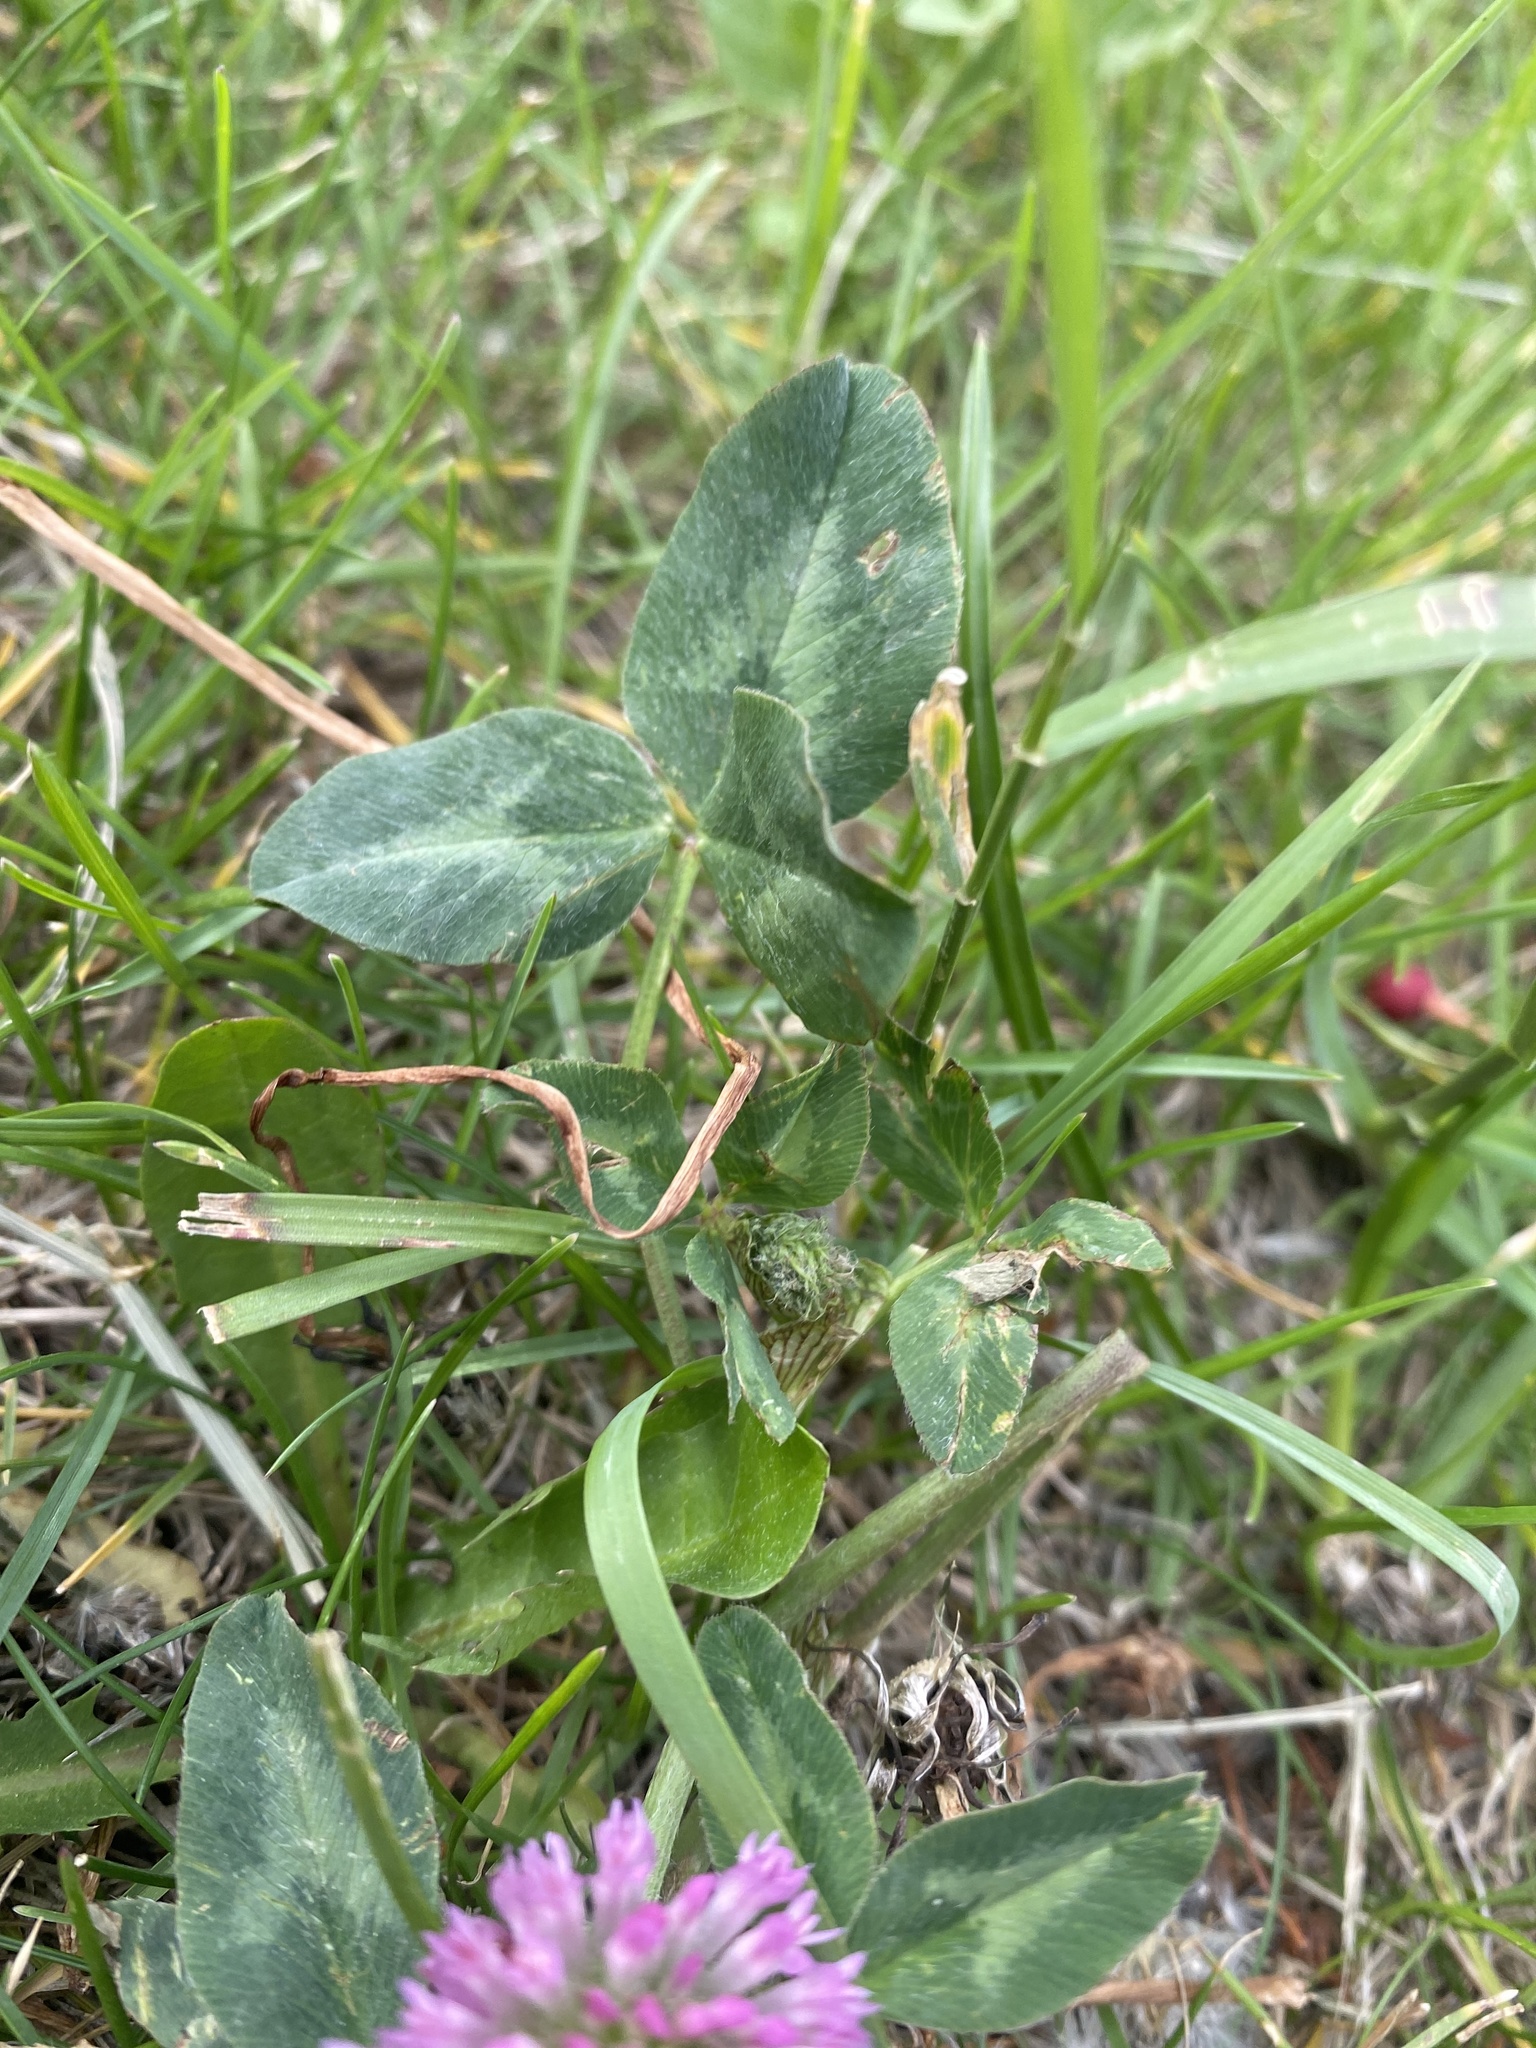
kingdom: Plantae
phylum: Tracheophyta
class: Magnoliopsida
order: Fabales
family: Fabaceae
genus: Trifolium
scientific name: Trifolium pratense
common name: Red clover
